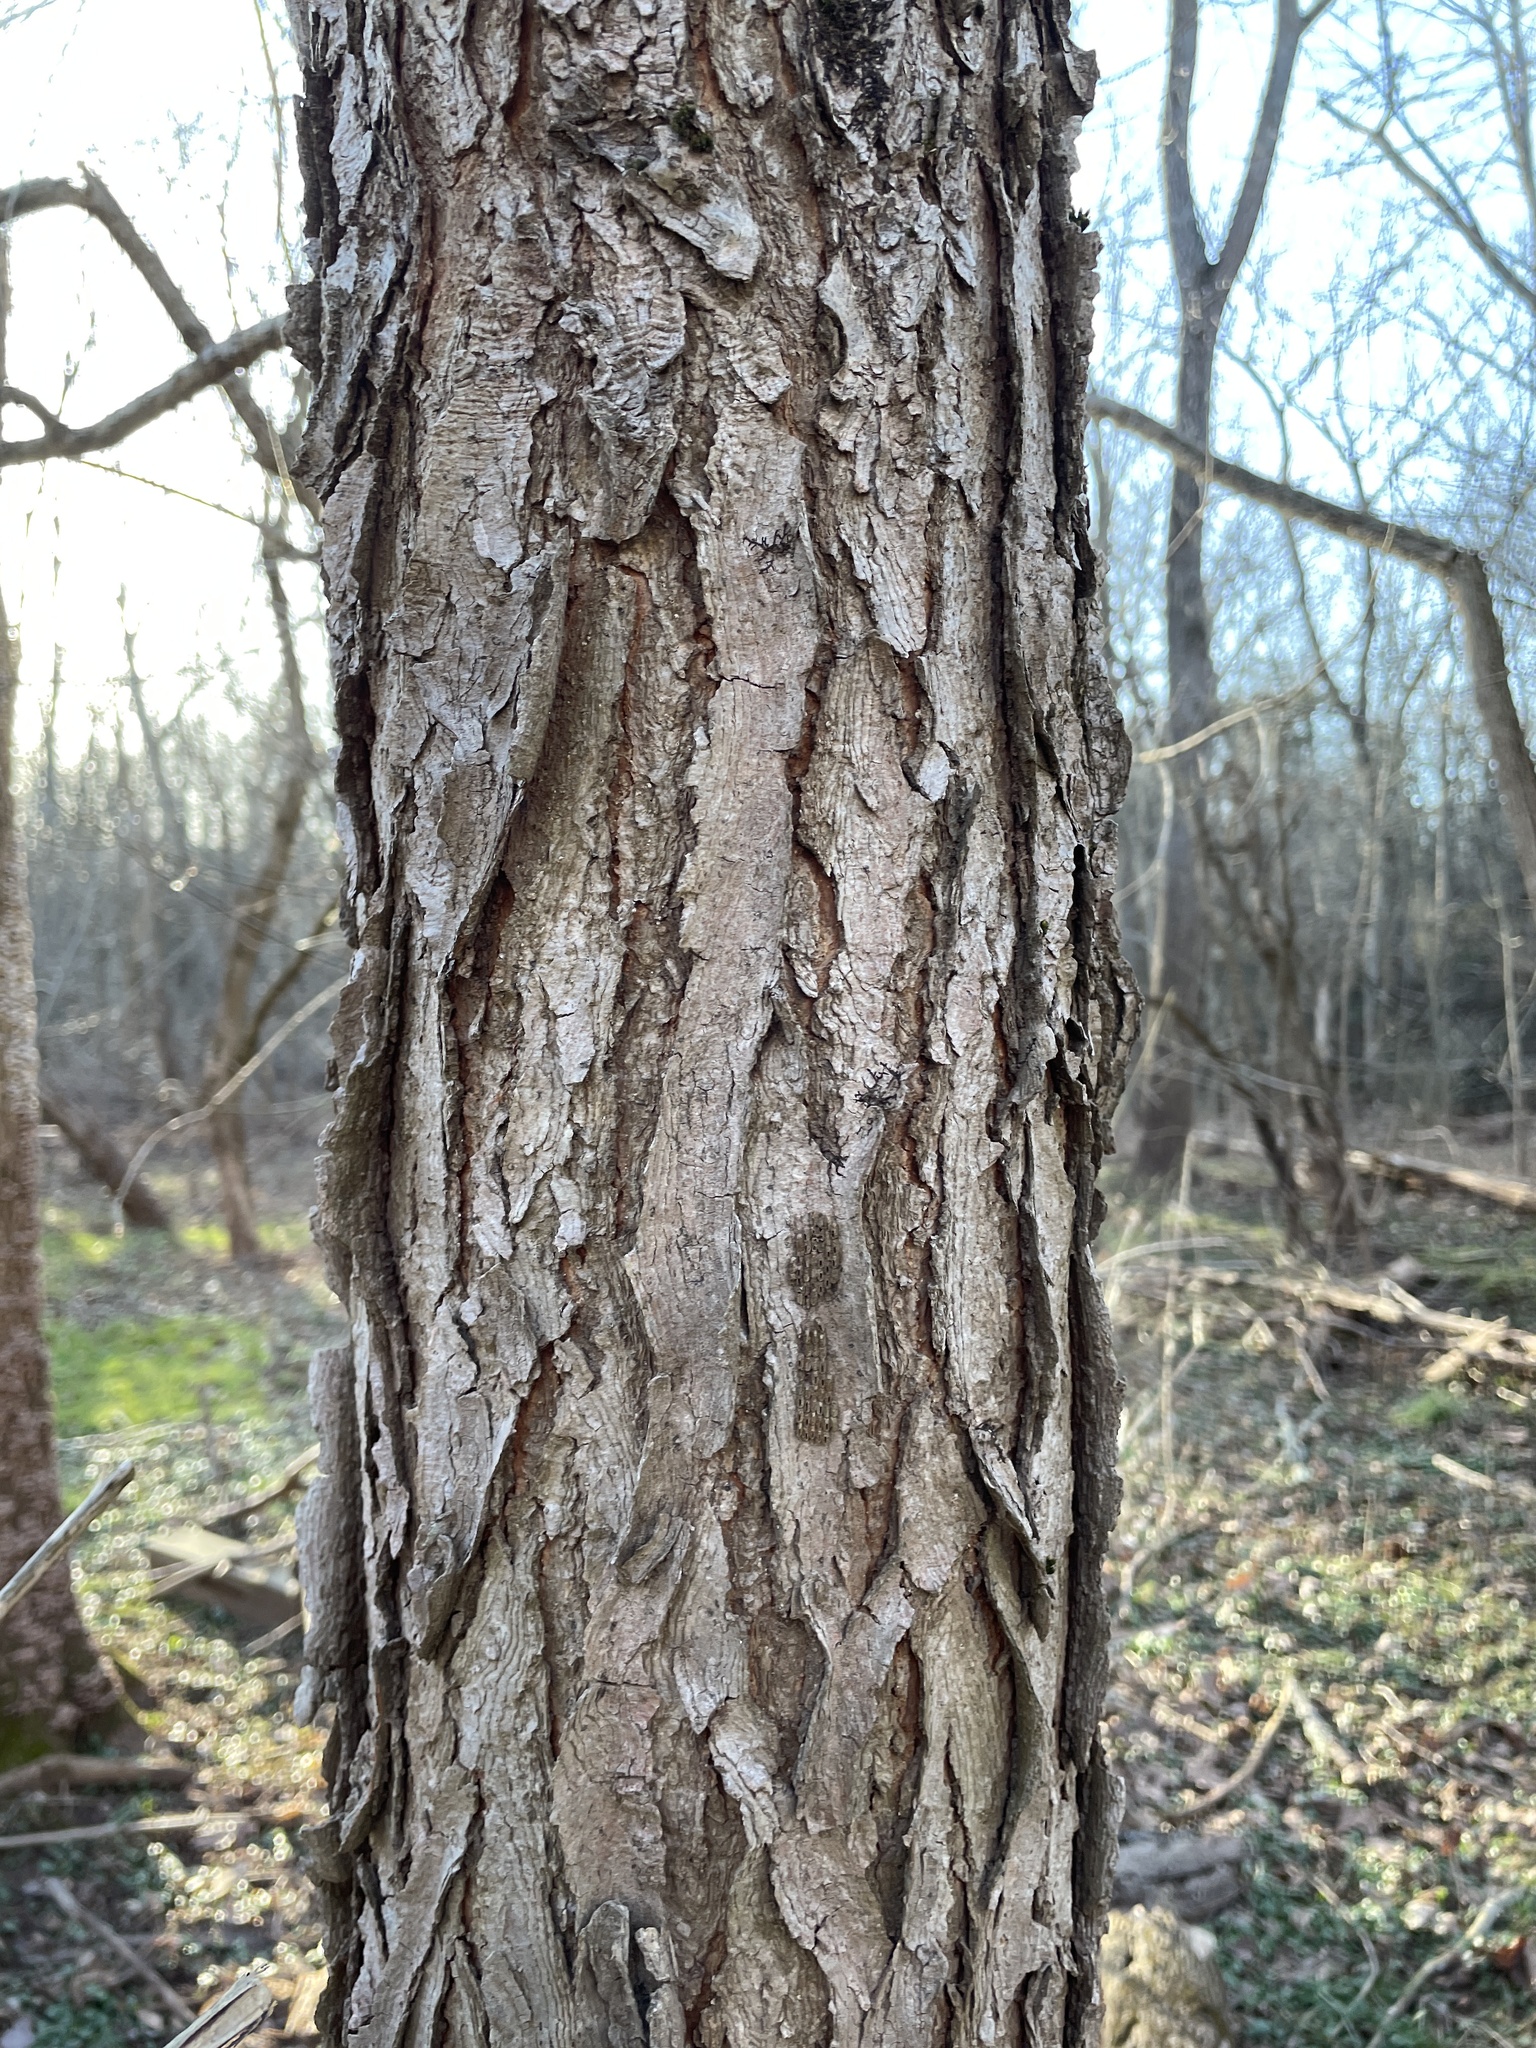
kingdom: Plantae
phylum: Tracheophyta
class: Magnoliopsida
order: Fabales
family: Fabaceae
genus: Gymnocladus
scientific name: Gymnocladus dioicus
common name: Kentucky coffee-tree
